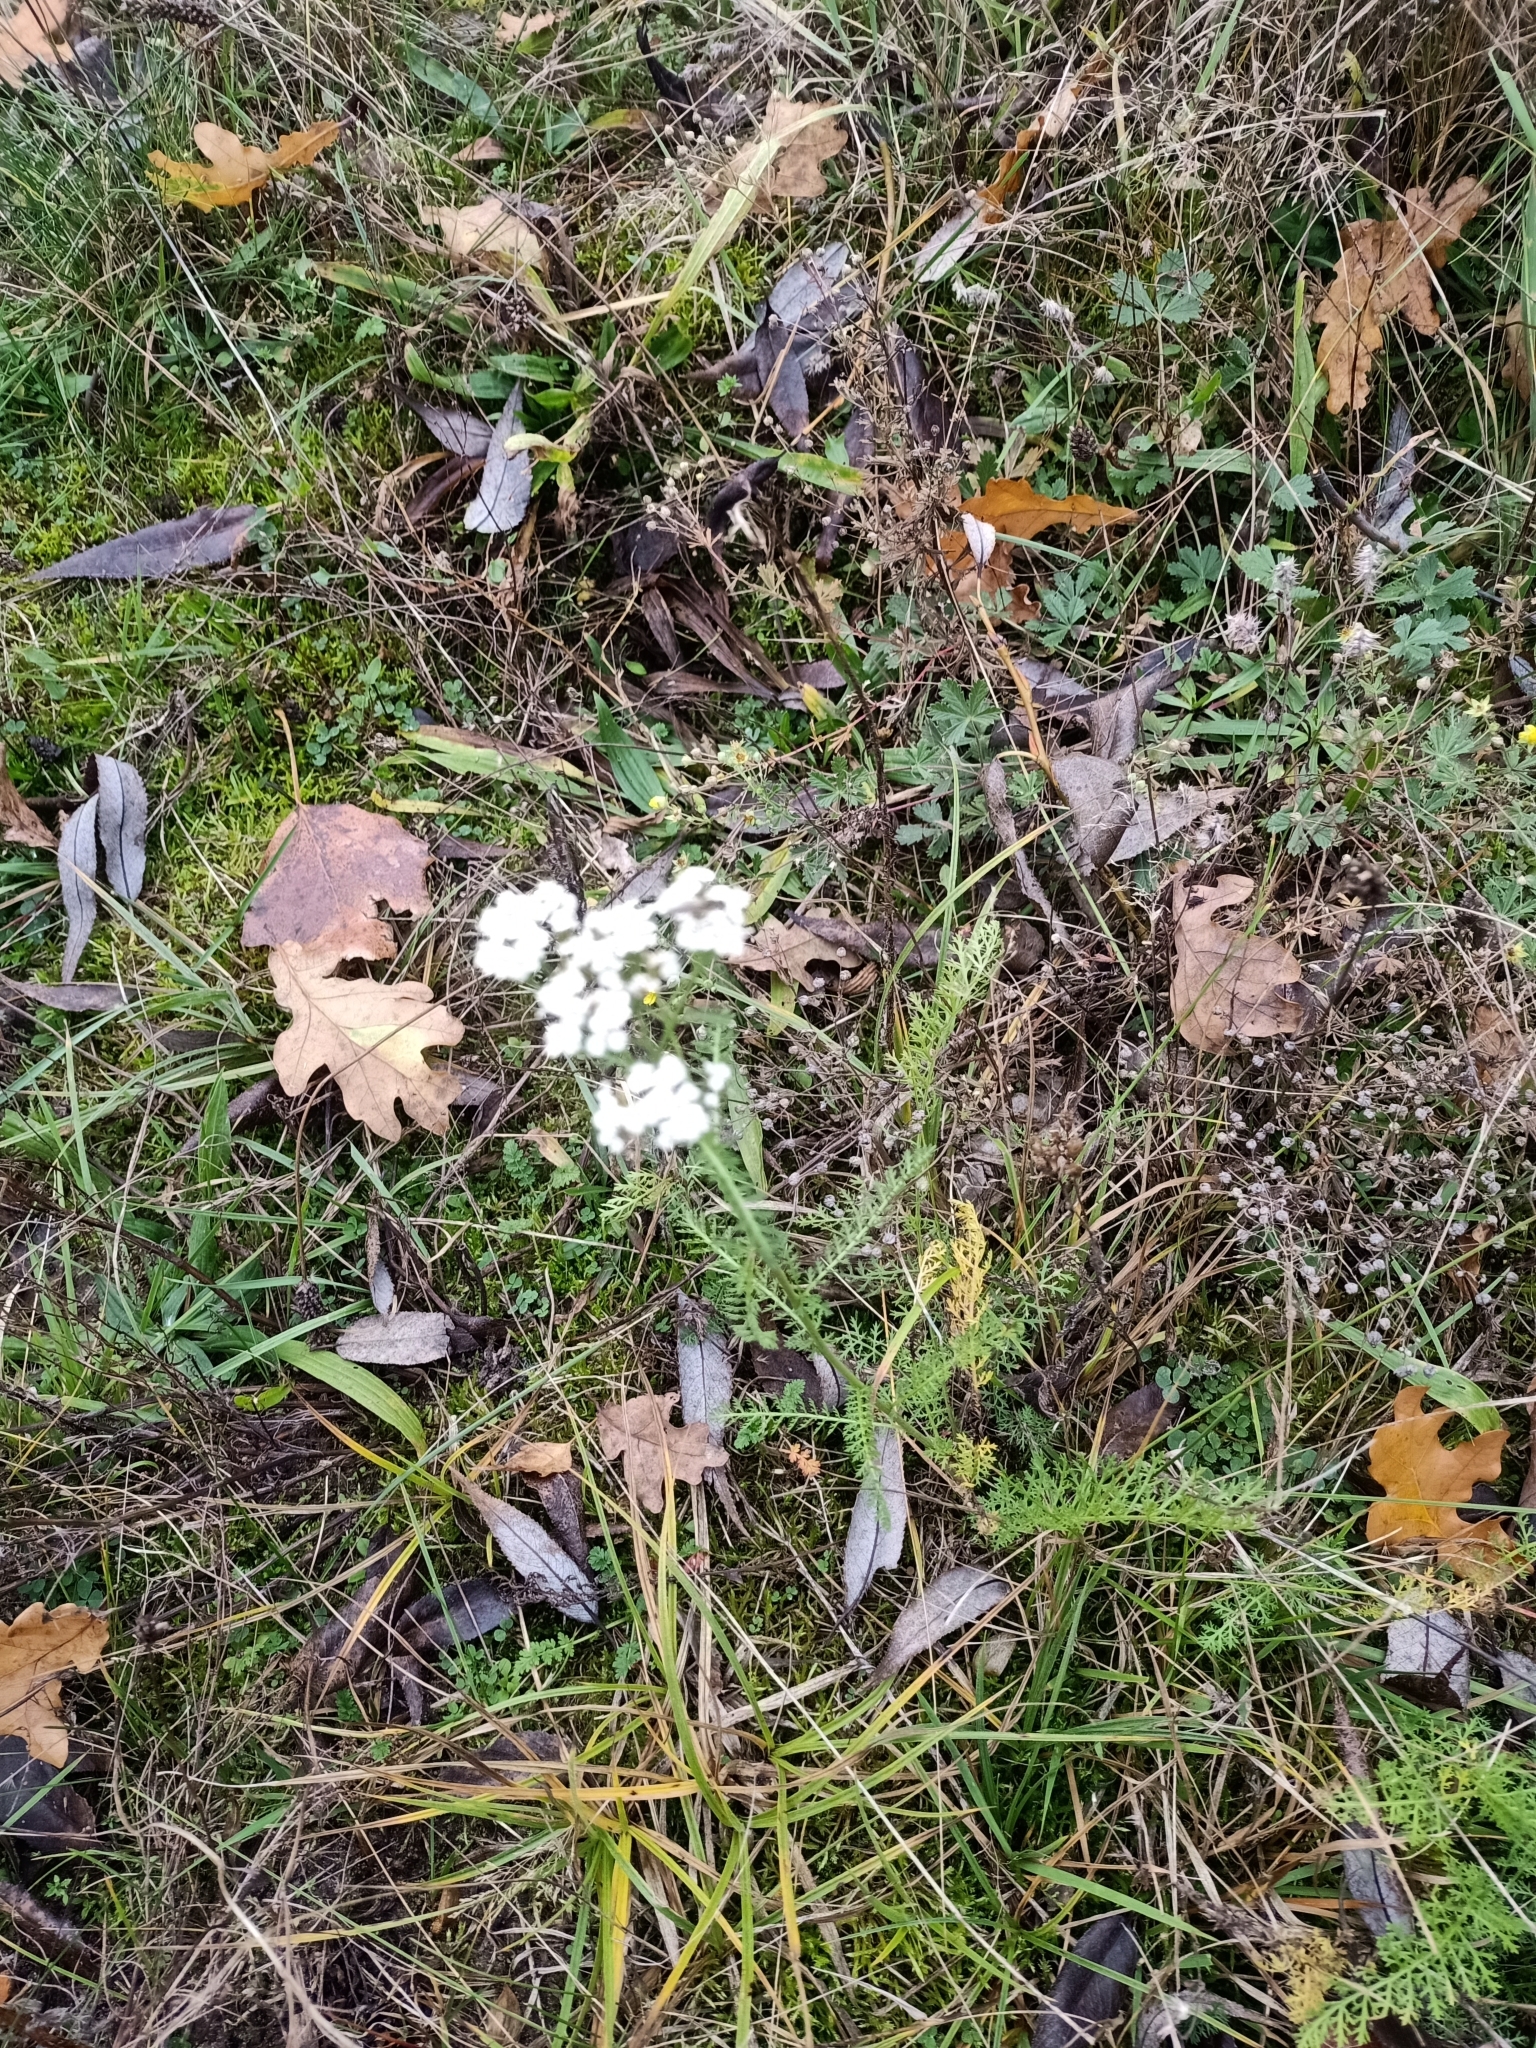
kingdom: Plantae
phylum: Tracheophyta
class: Magnoliopsida
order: Asterales
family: Asteraceae
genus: Achillea
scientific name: Achillea millefolium
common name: Yarrow
